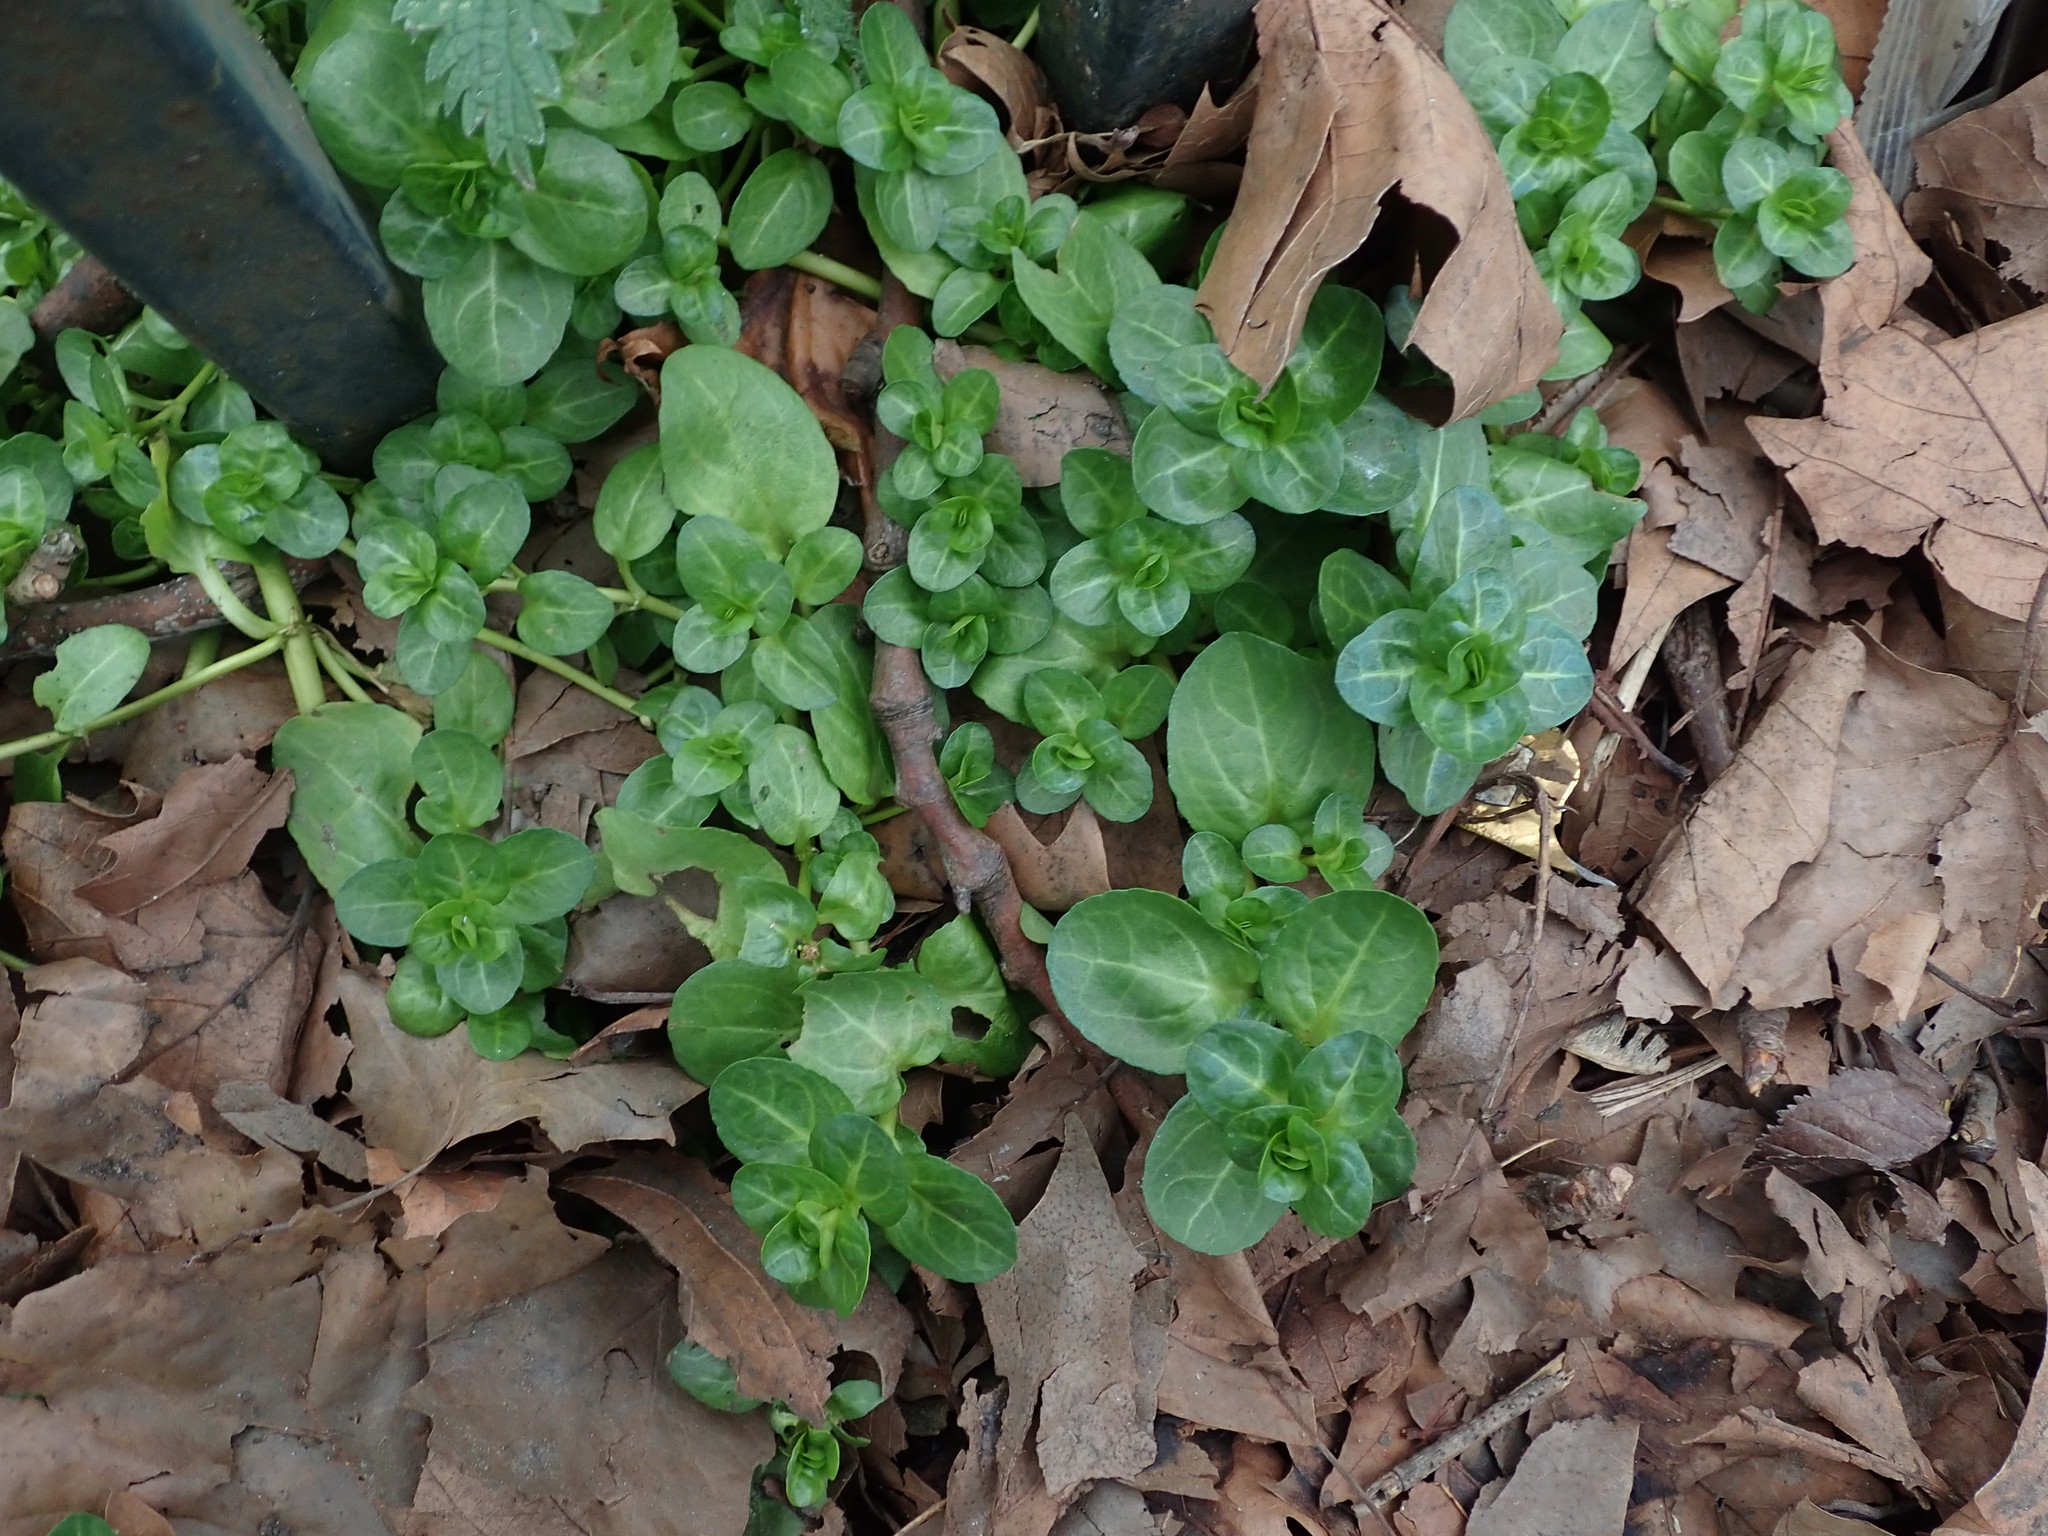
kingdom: Plantae
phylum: Tracheophyta
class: Magnoliopsida
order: Lamiales
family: Plantaginaceae
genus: Veronica
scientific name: Veronica beccabunga
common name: Brooklime
